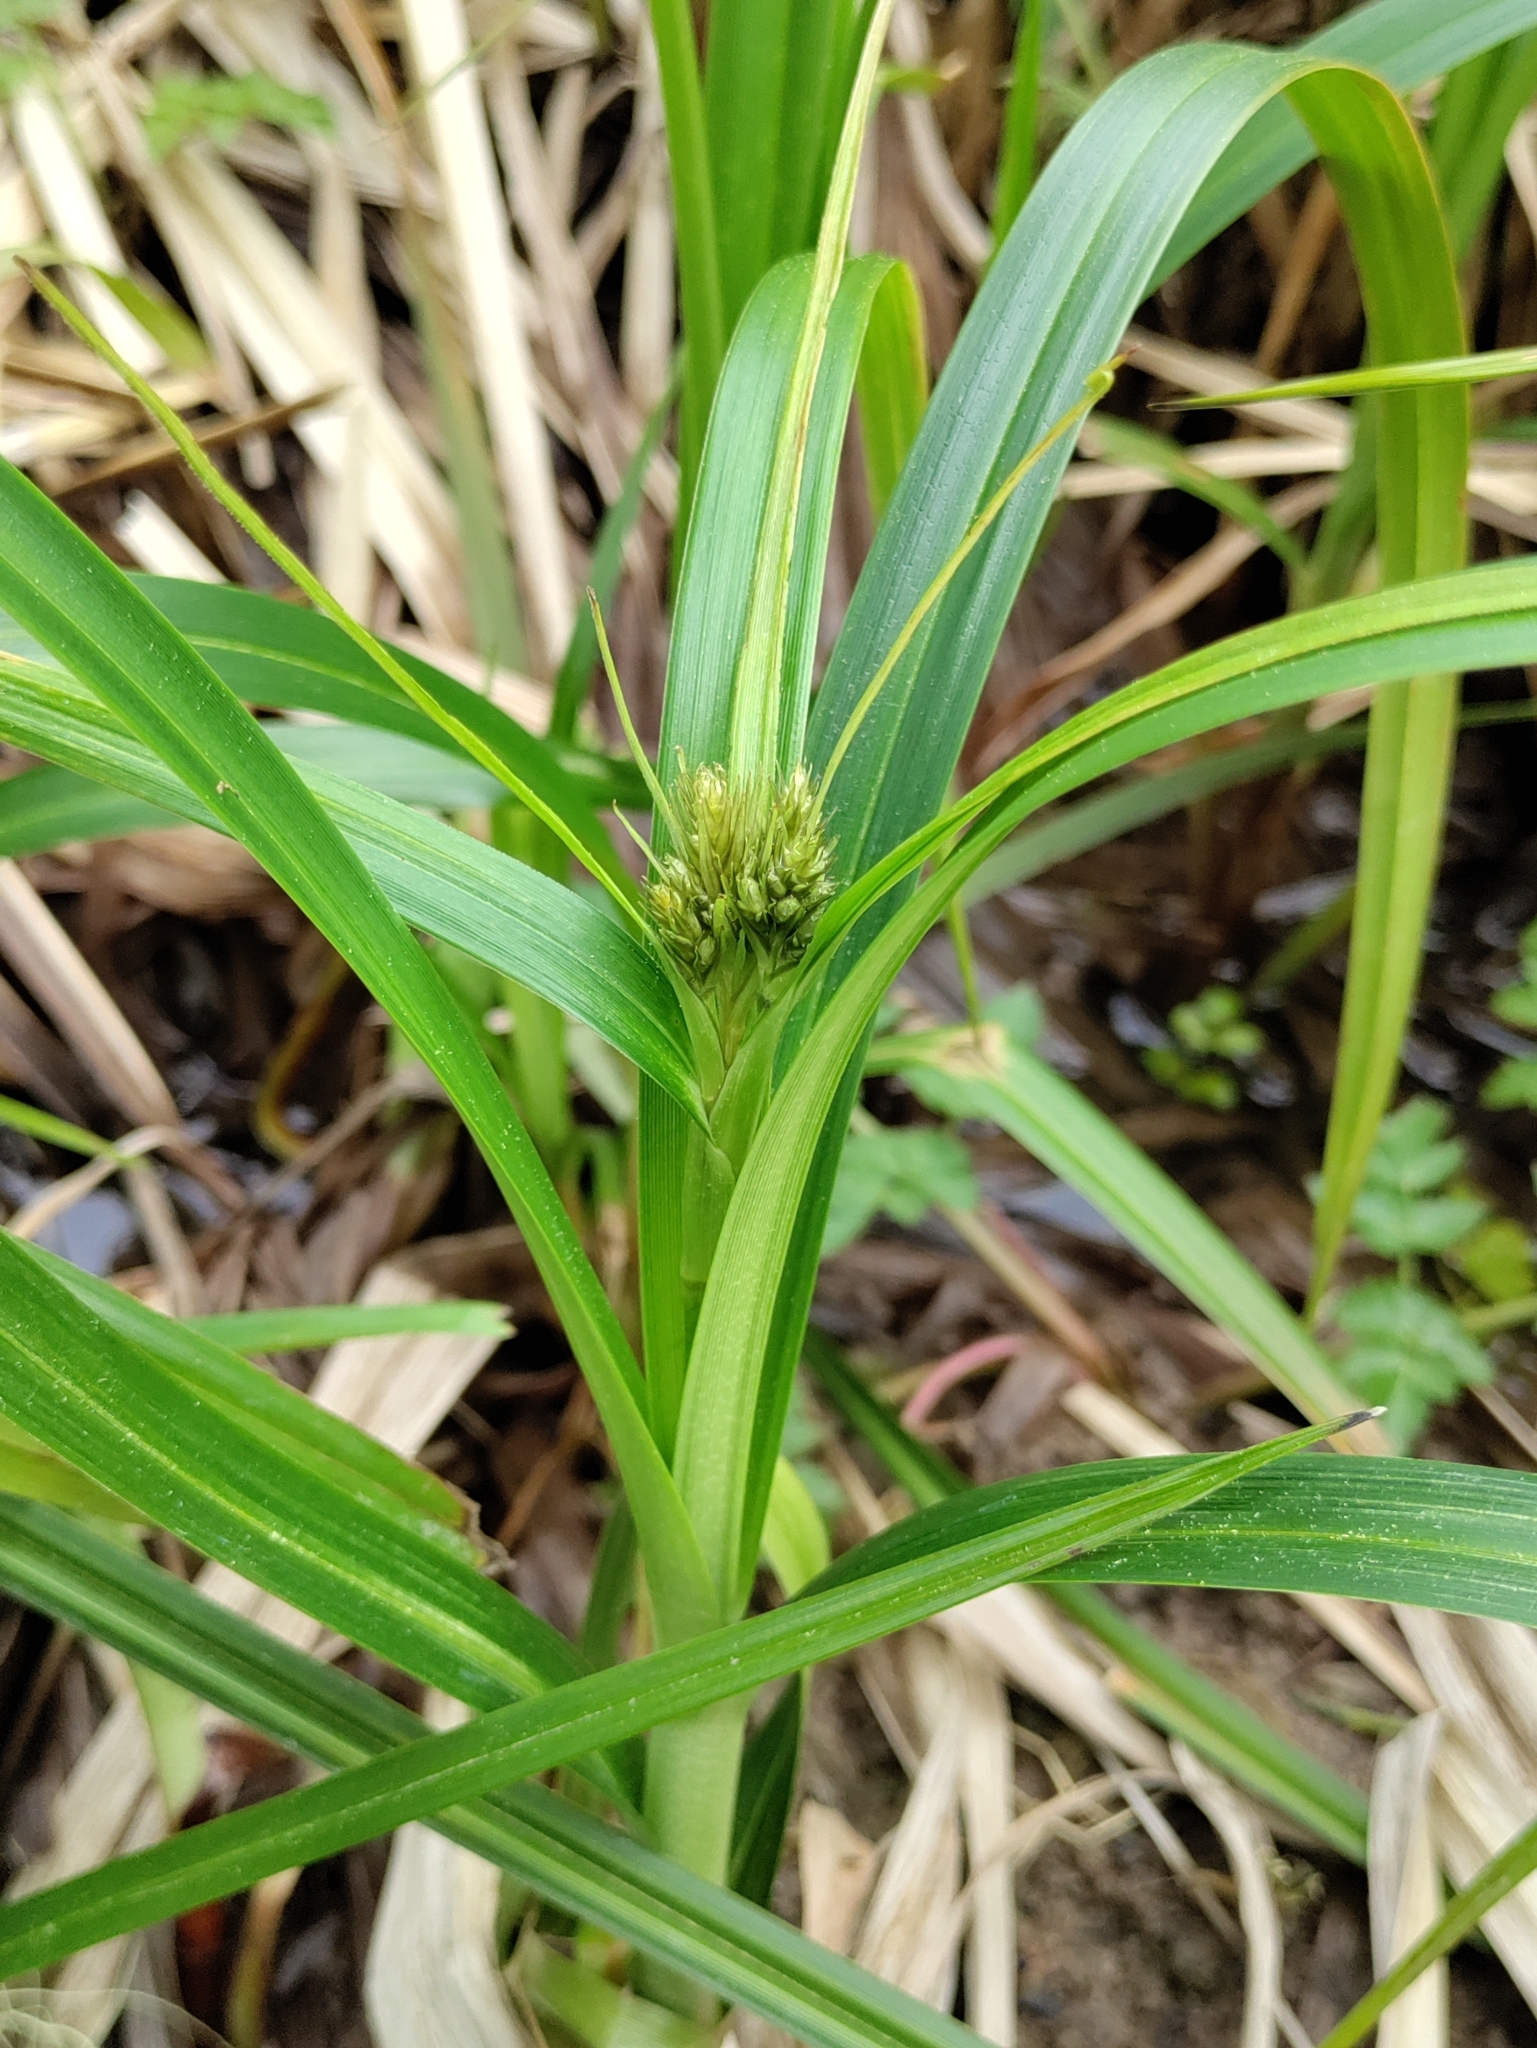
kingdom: Plantae
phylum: Tracheophyta
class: Liliopsida
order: Poales
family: Cyperaceae
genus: Scirpus
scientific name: Scirpus microcarpus
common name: Panicled bulrush
